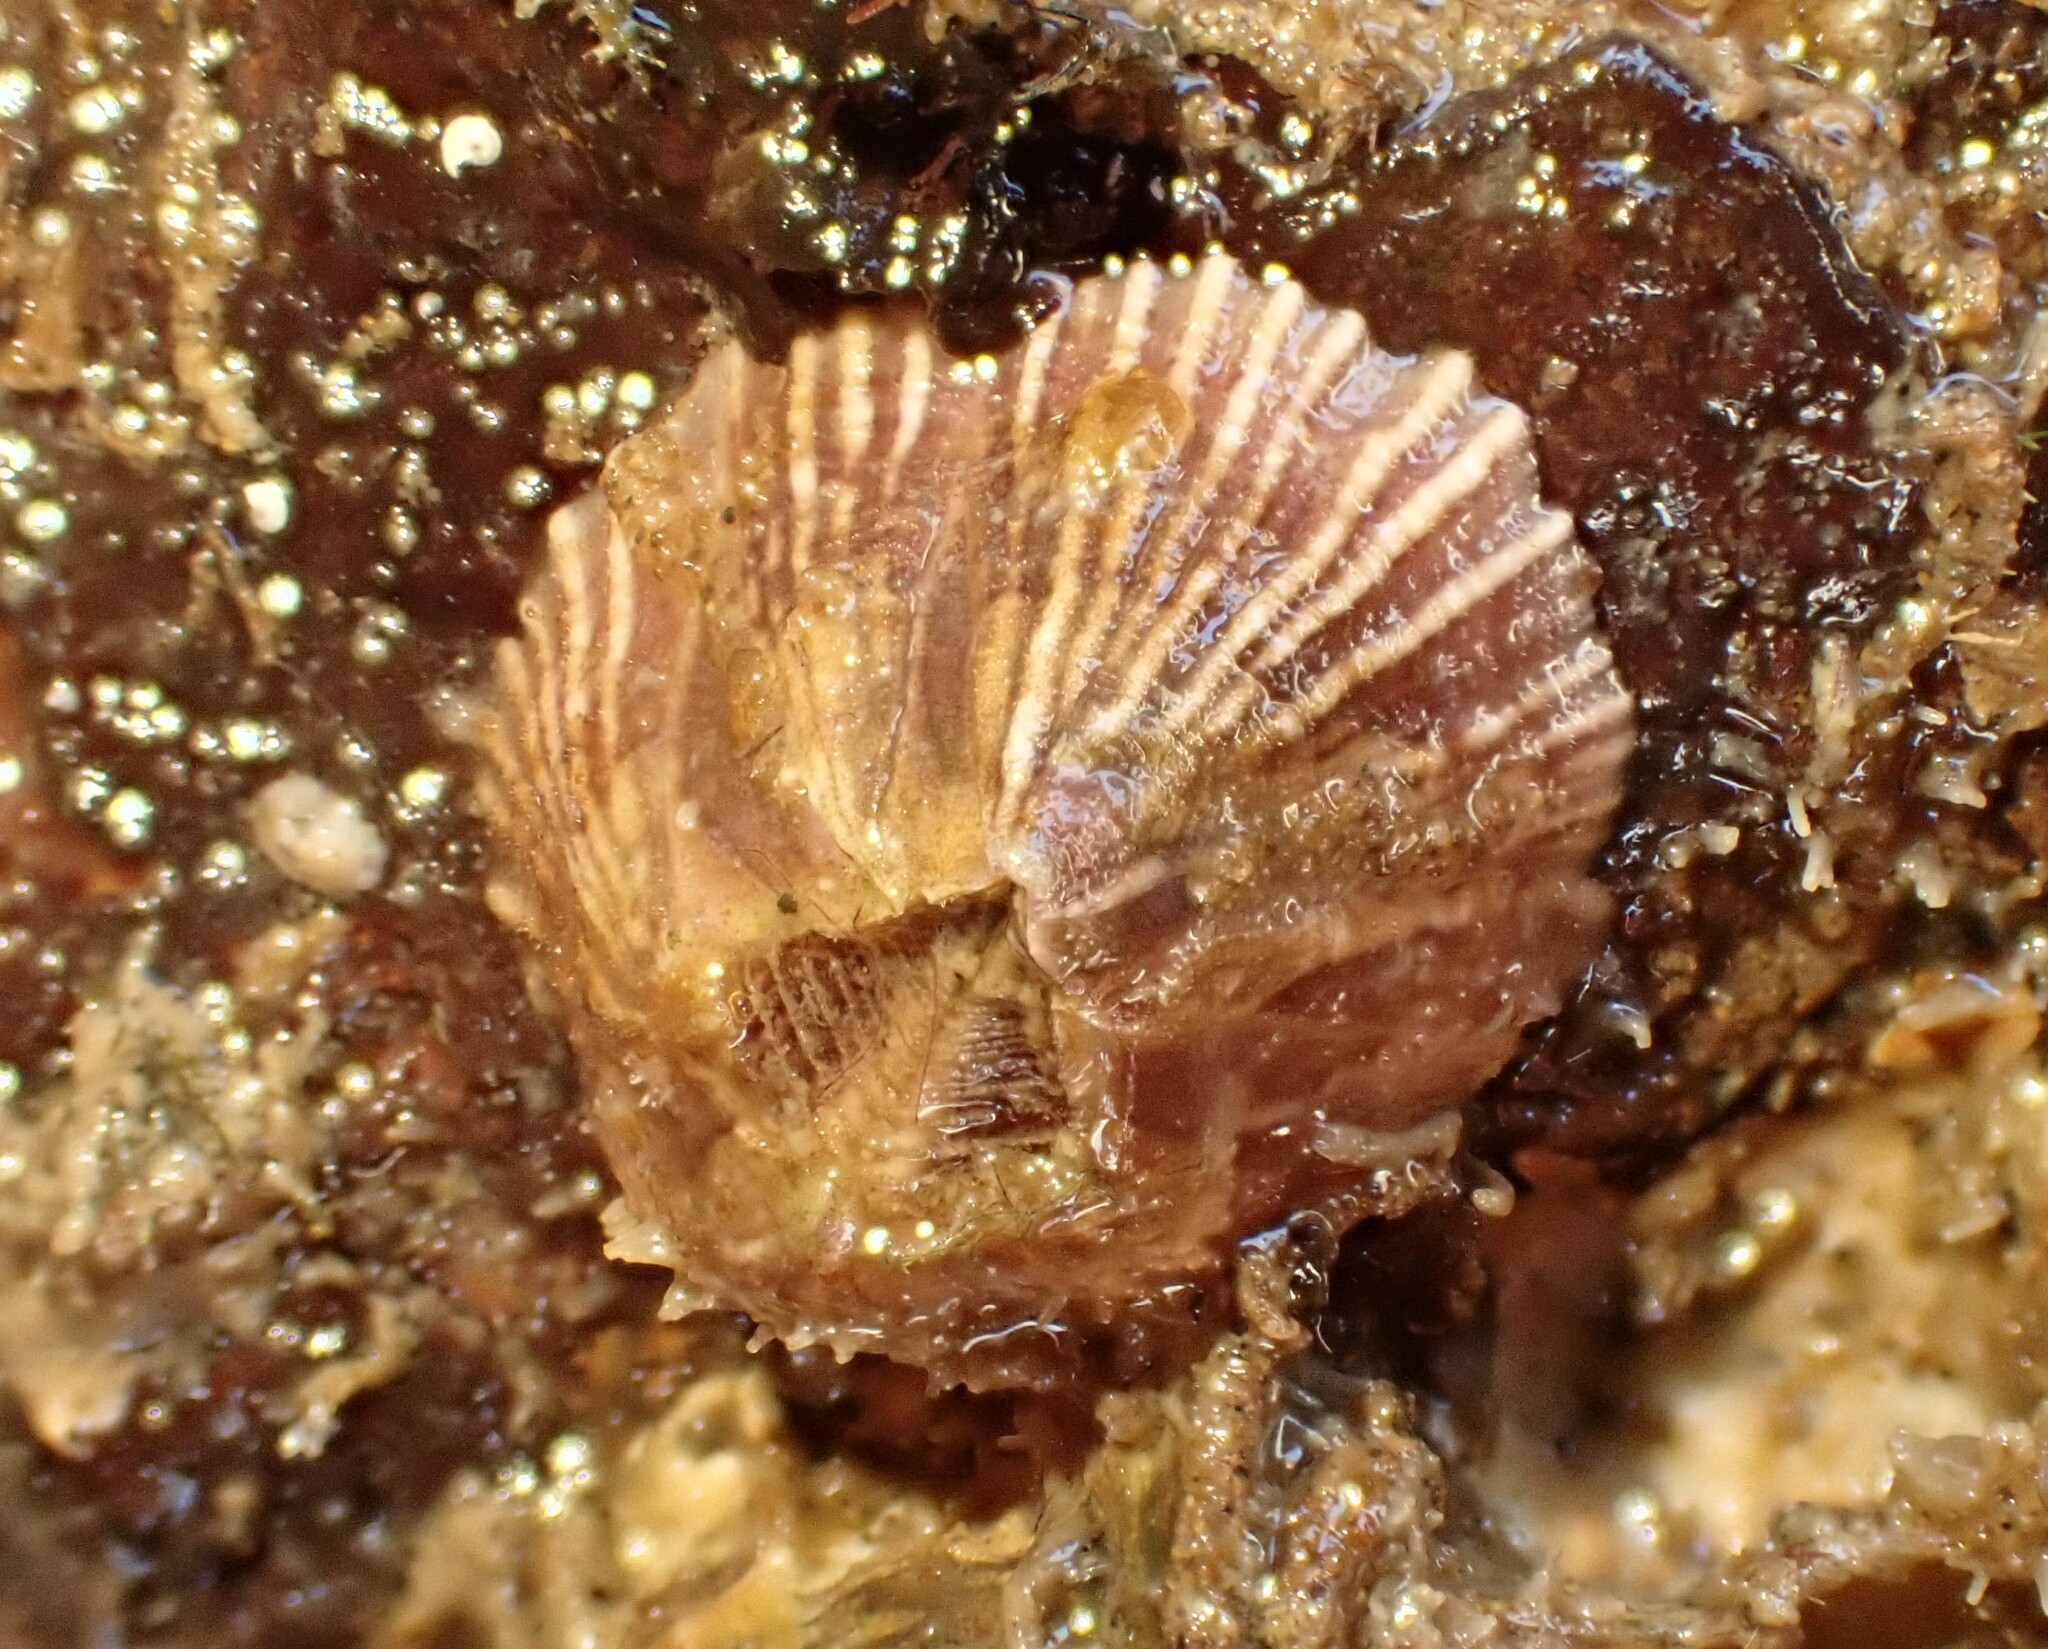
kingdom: Animalia
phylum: Arthropoda
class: Maxillopoda
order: Sessilia
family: Balanidae
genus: Balanus
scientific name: Balanus trigonus
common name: Triangle barnacle
